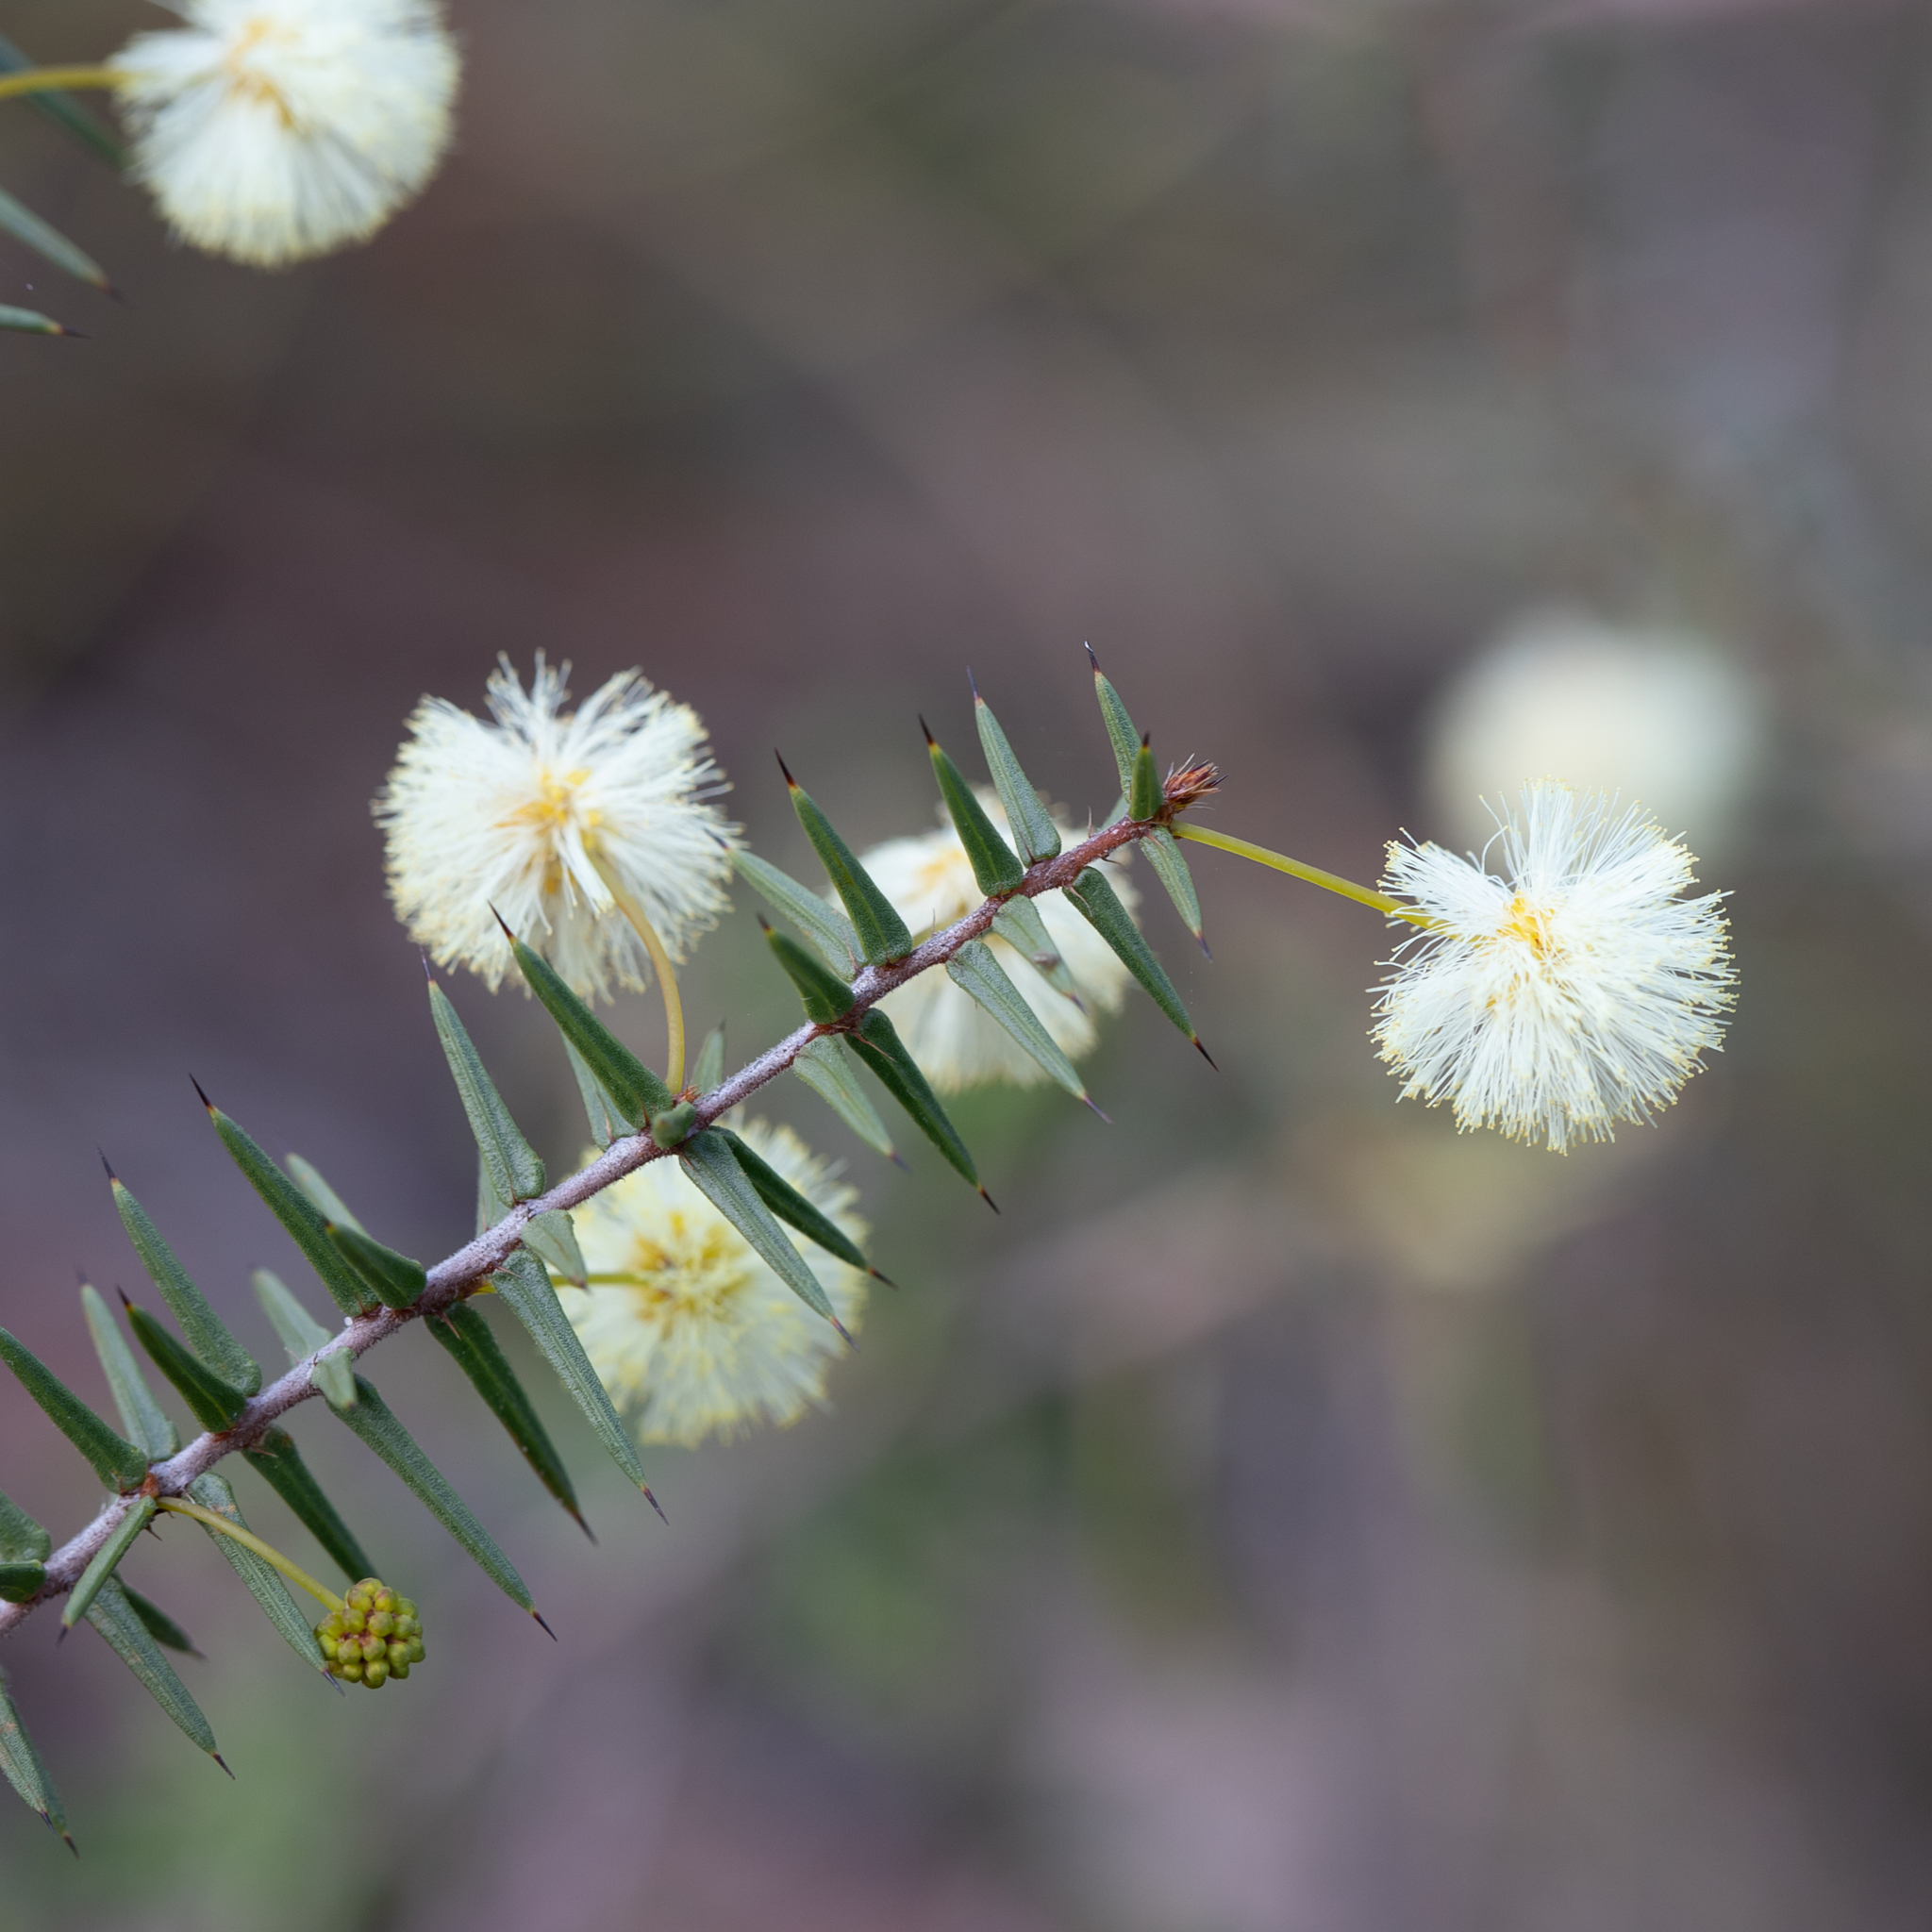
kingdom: Plantae
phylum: Tracheophyta
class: Magnoliopsida
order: Fabales
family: Fabaceae
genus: Acacia
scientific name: Acacia ulicifolia
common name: Juniper wattle
